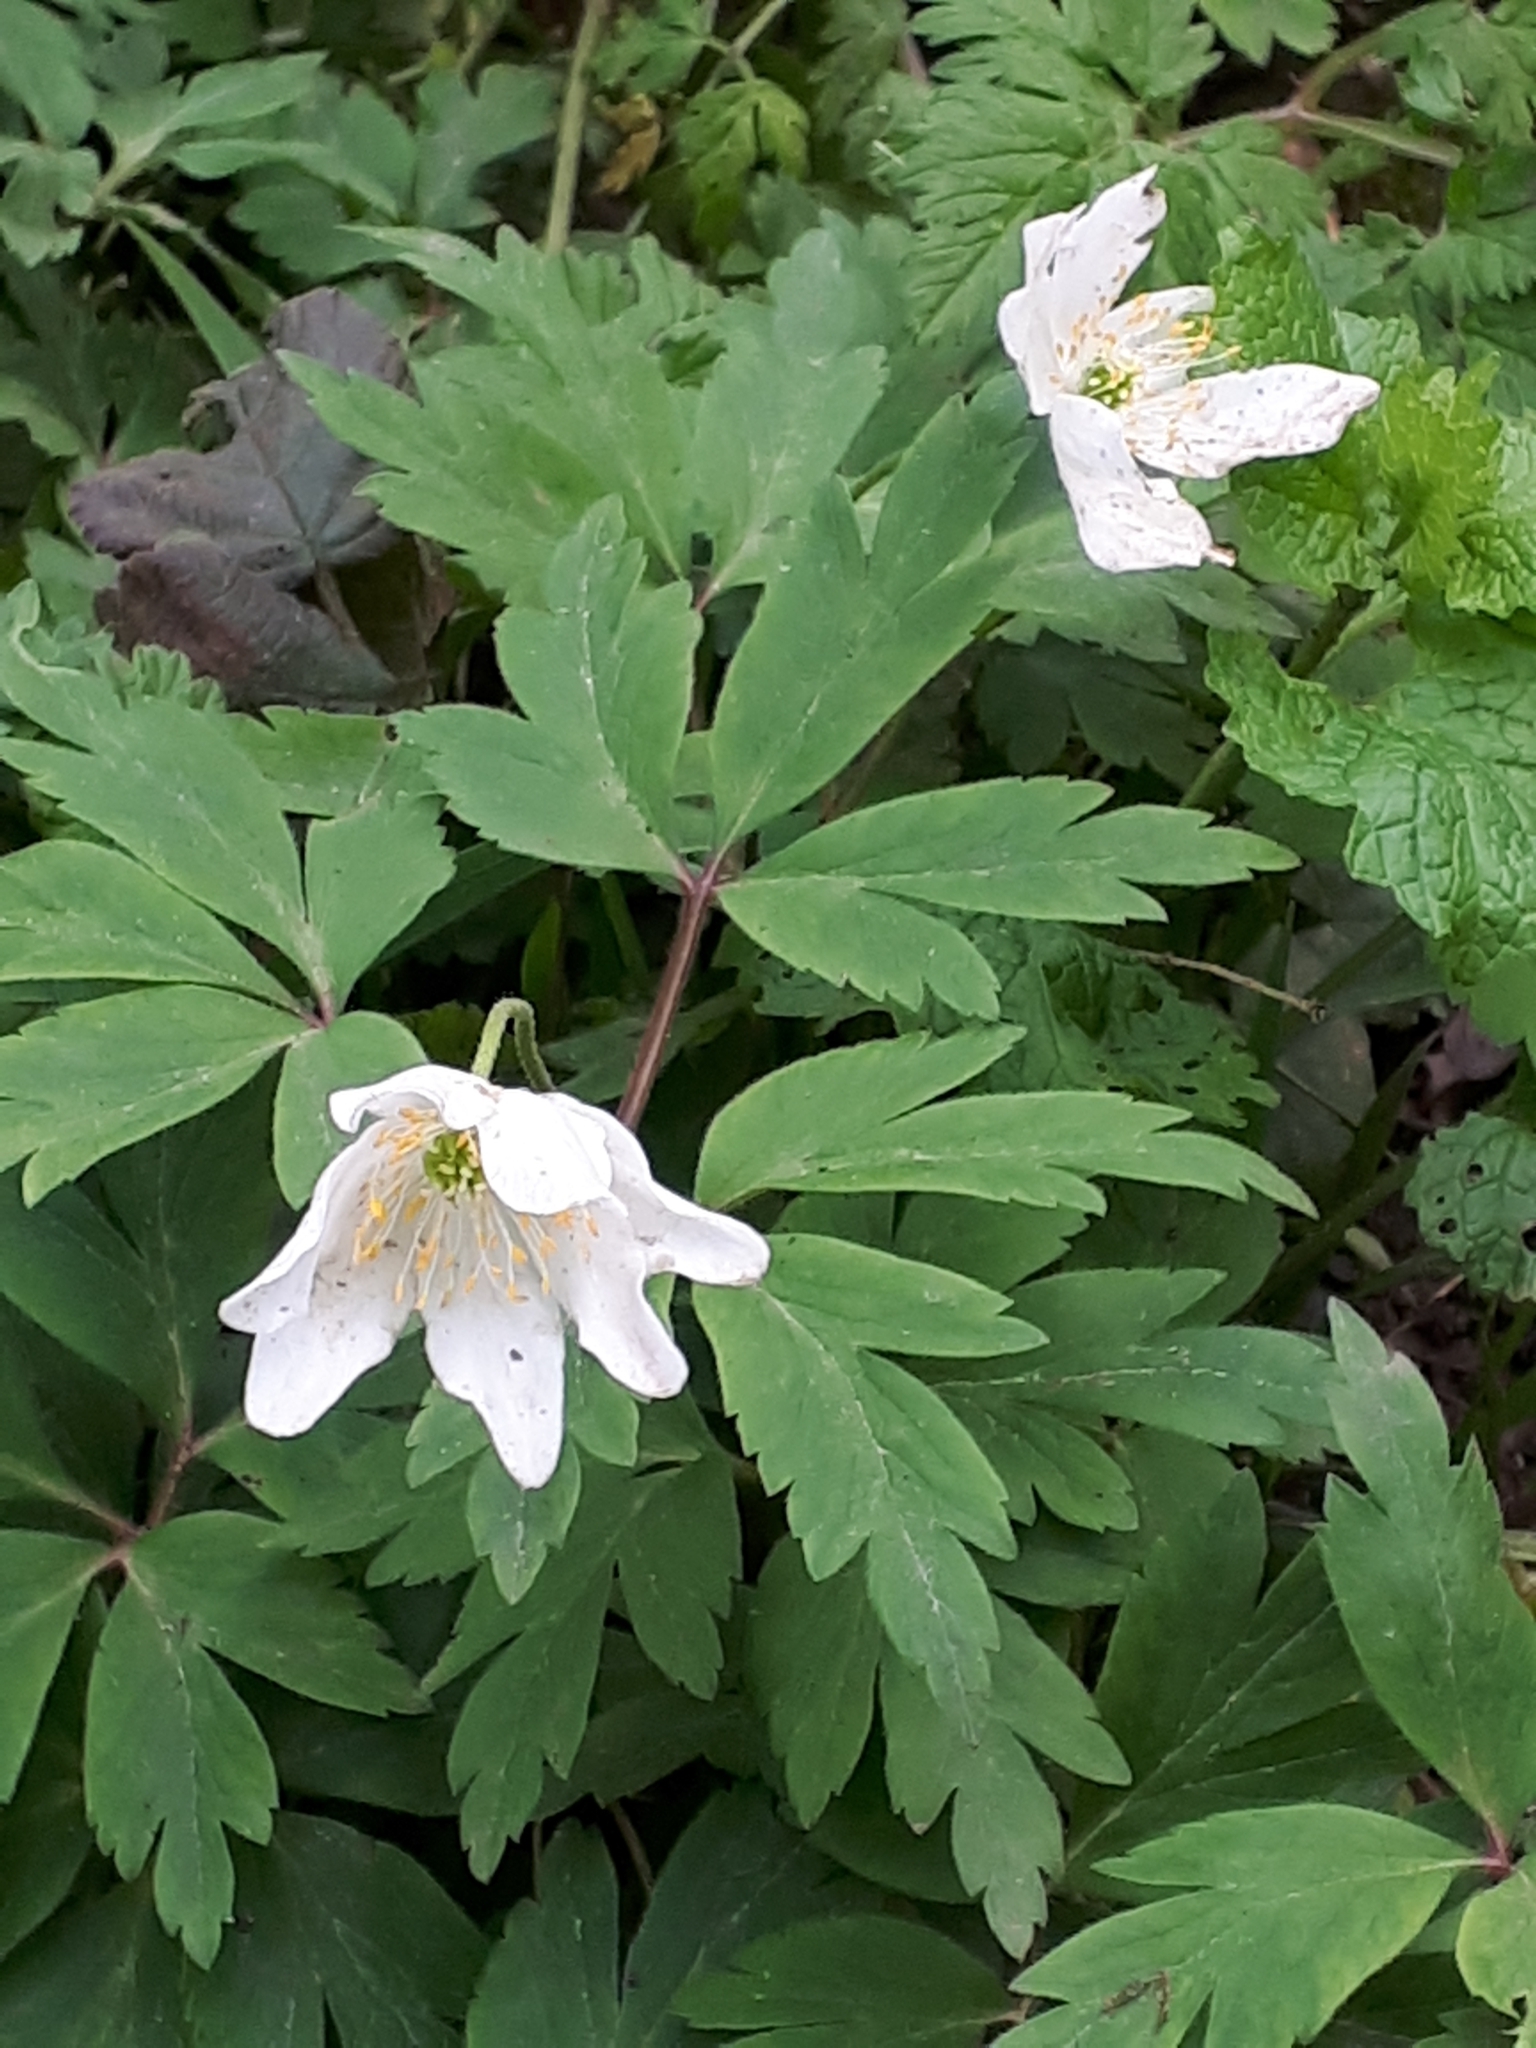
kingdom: Plantae
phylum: Tracheophyta
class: Magnoliopsida
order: Ranunculales
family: Ranunculaceae
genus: Anemone
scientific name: Anemone nemorosa
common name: Wood anemone
